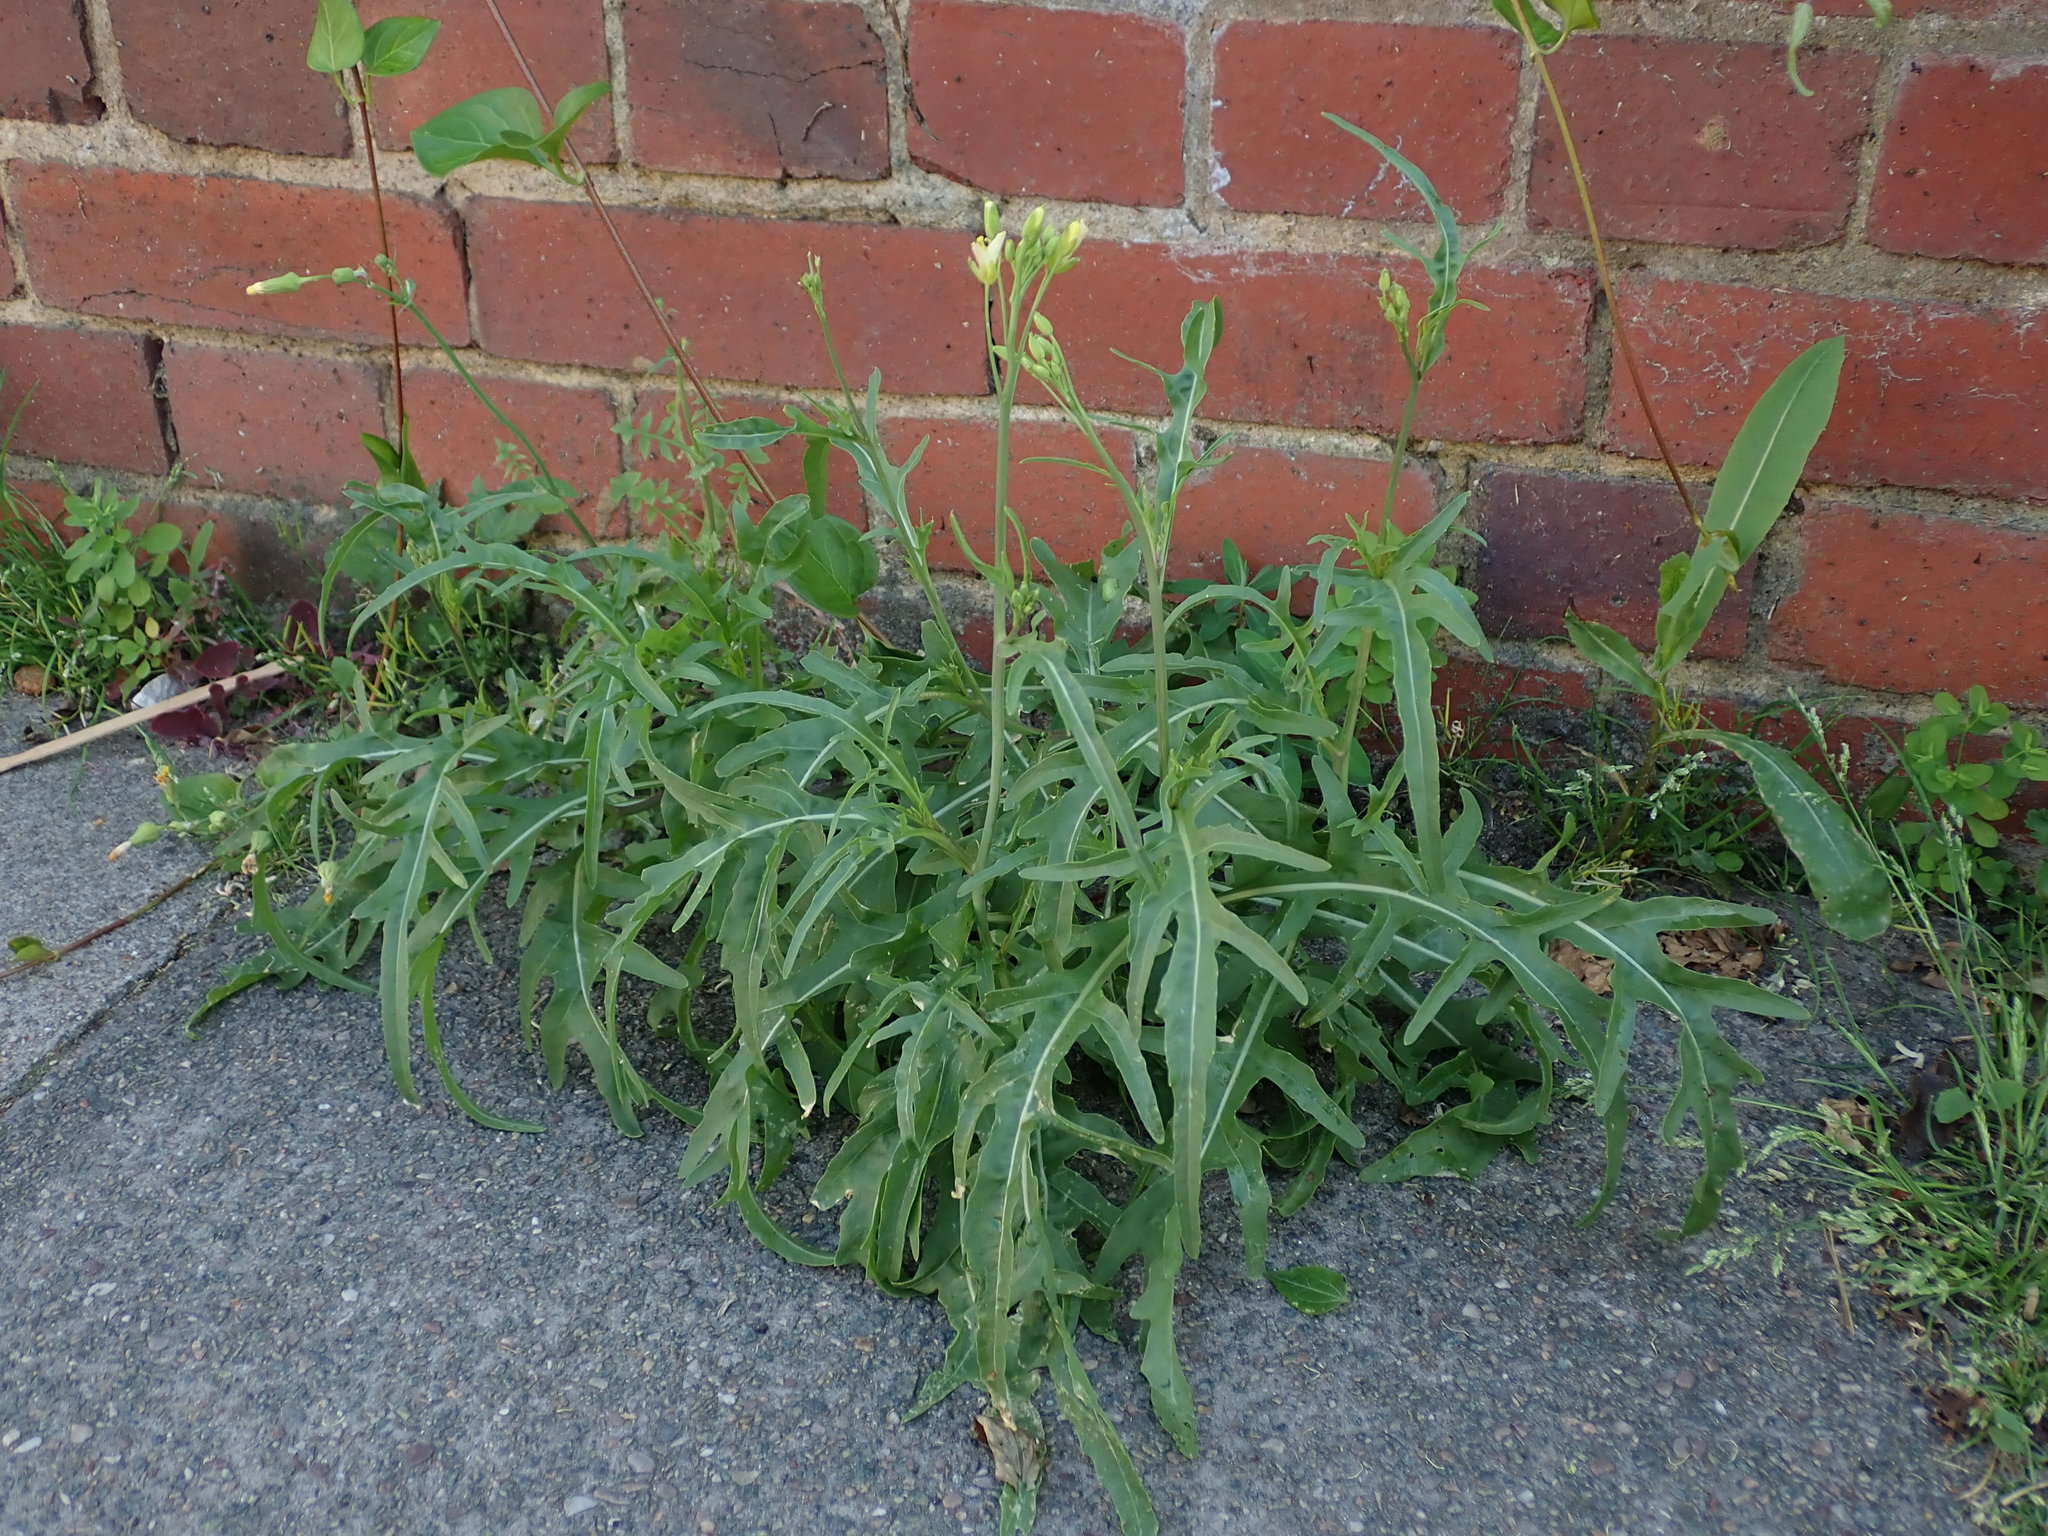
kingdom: Plantae
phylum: Tracheophyta
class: Magnoliopsida
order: Brassicales
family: Brassicaceae
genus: Diplotaxis
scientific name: Diplotaxis tenuifolia
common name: Perennial wall-rocket
